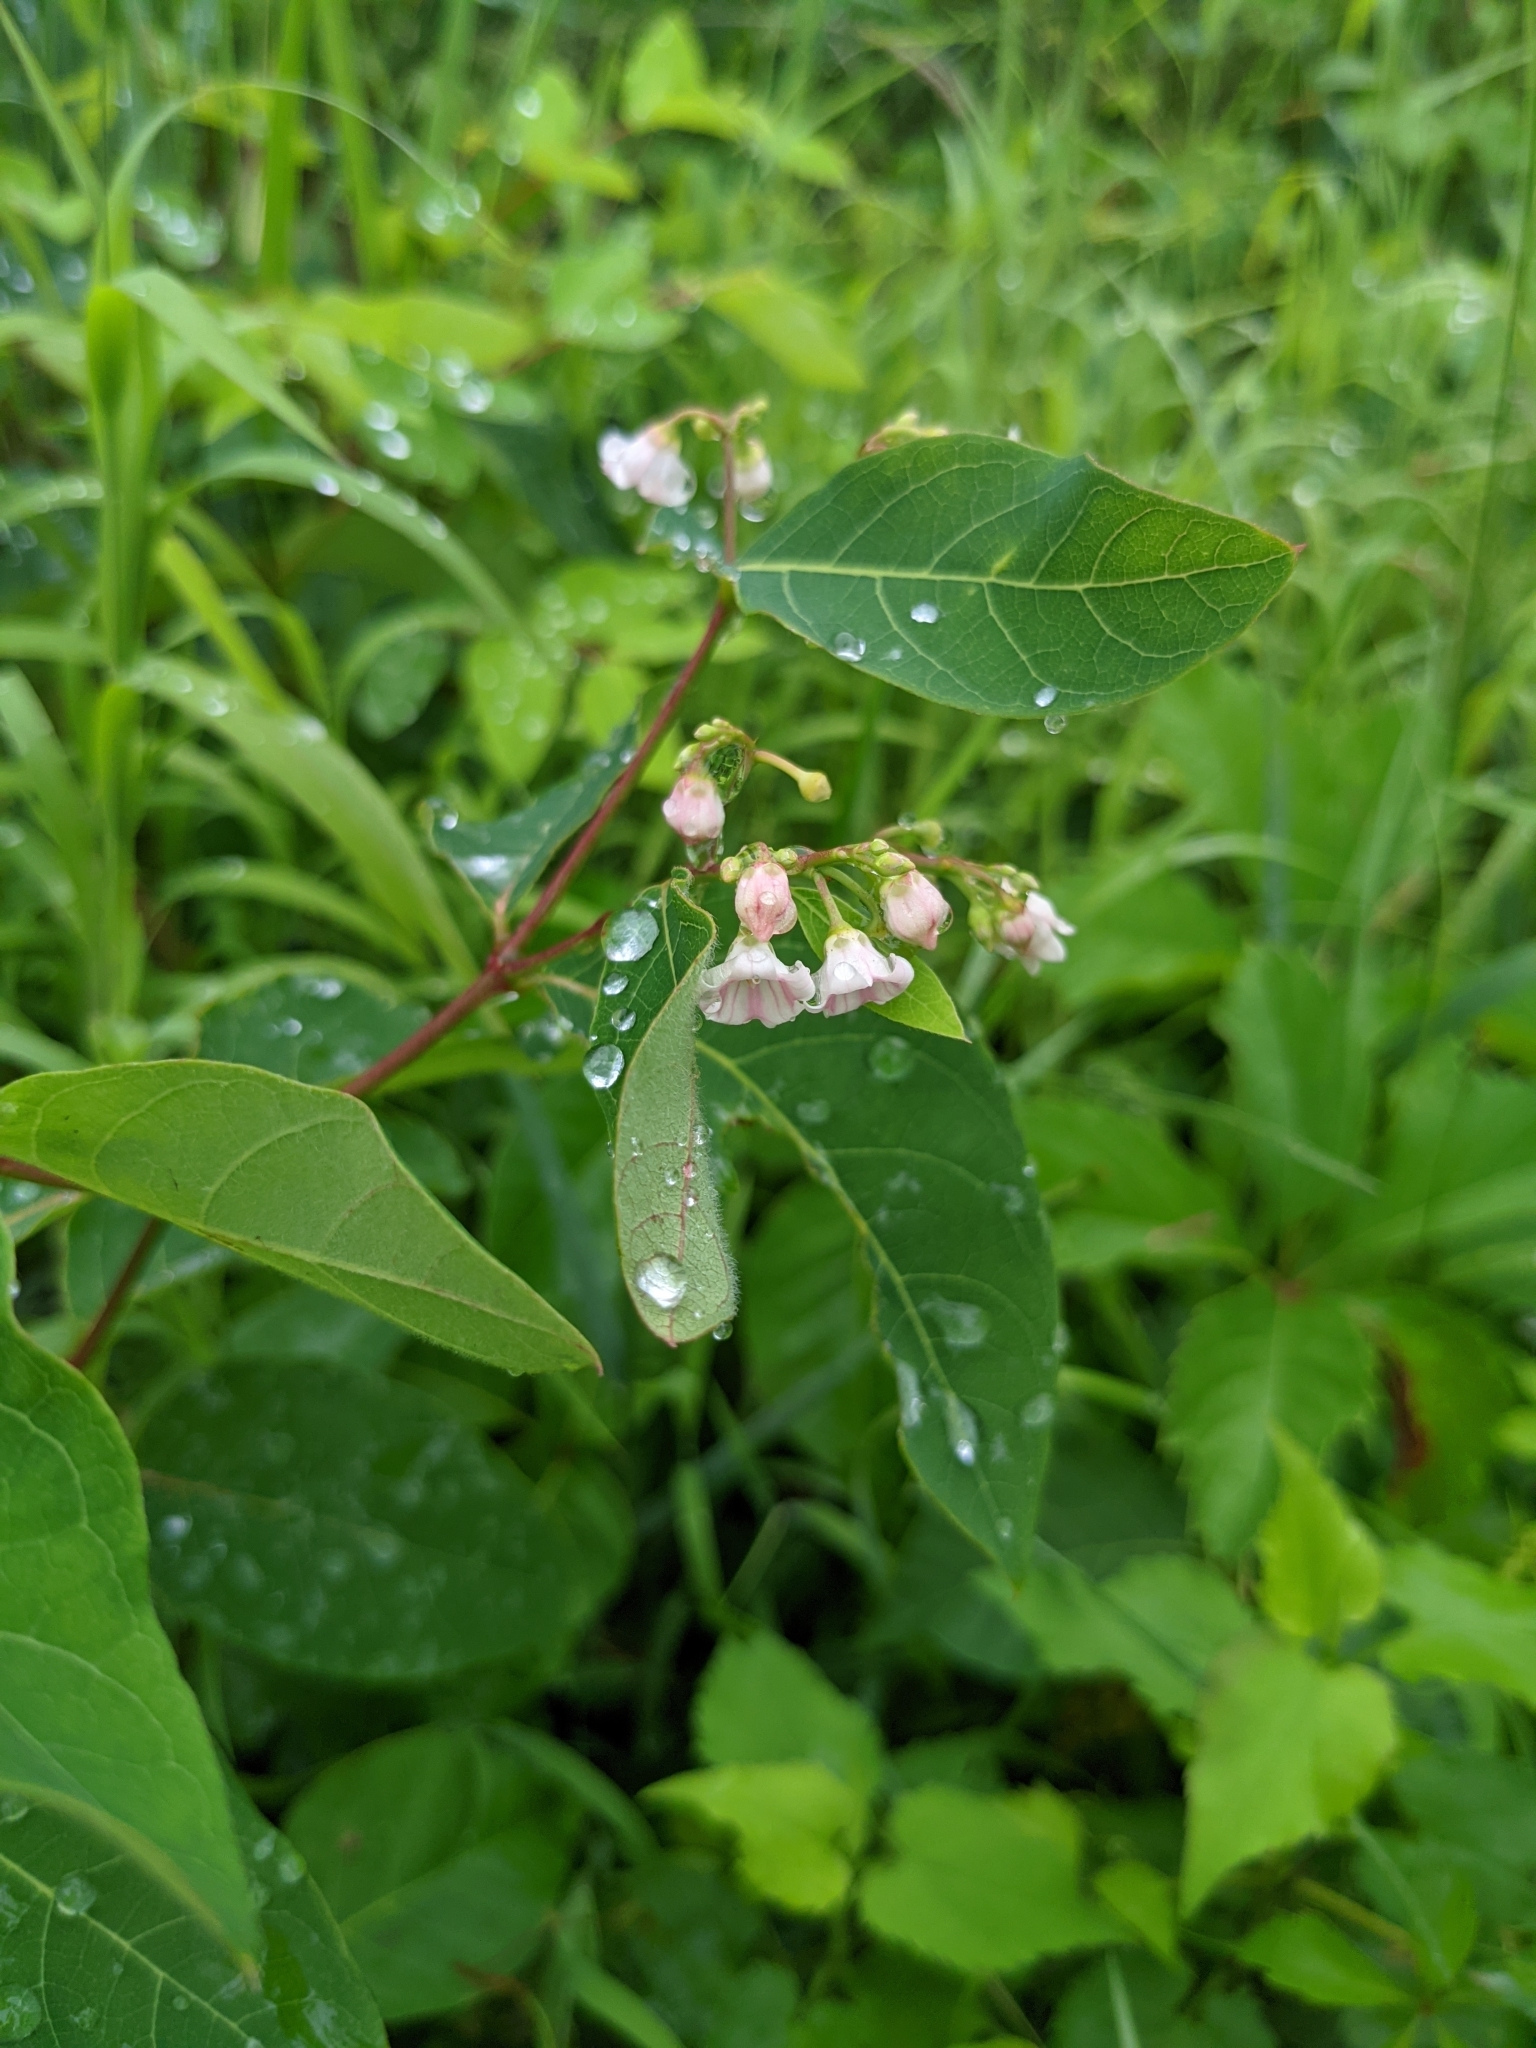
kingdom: Plantae
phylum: Tracheophyta
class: Magnoliopsida
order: Gentianales
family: Apocynaceae
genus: Apocynum
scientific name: Apocynum androsaemifolium
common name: Spreading dogbane
